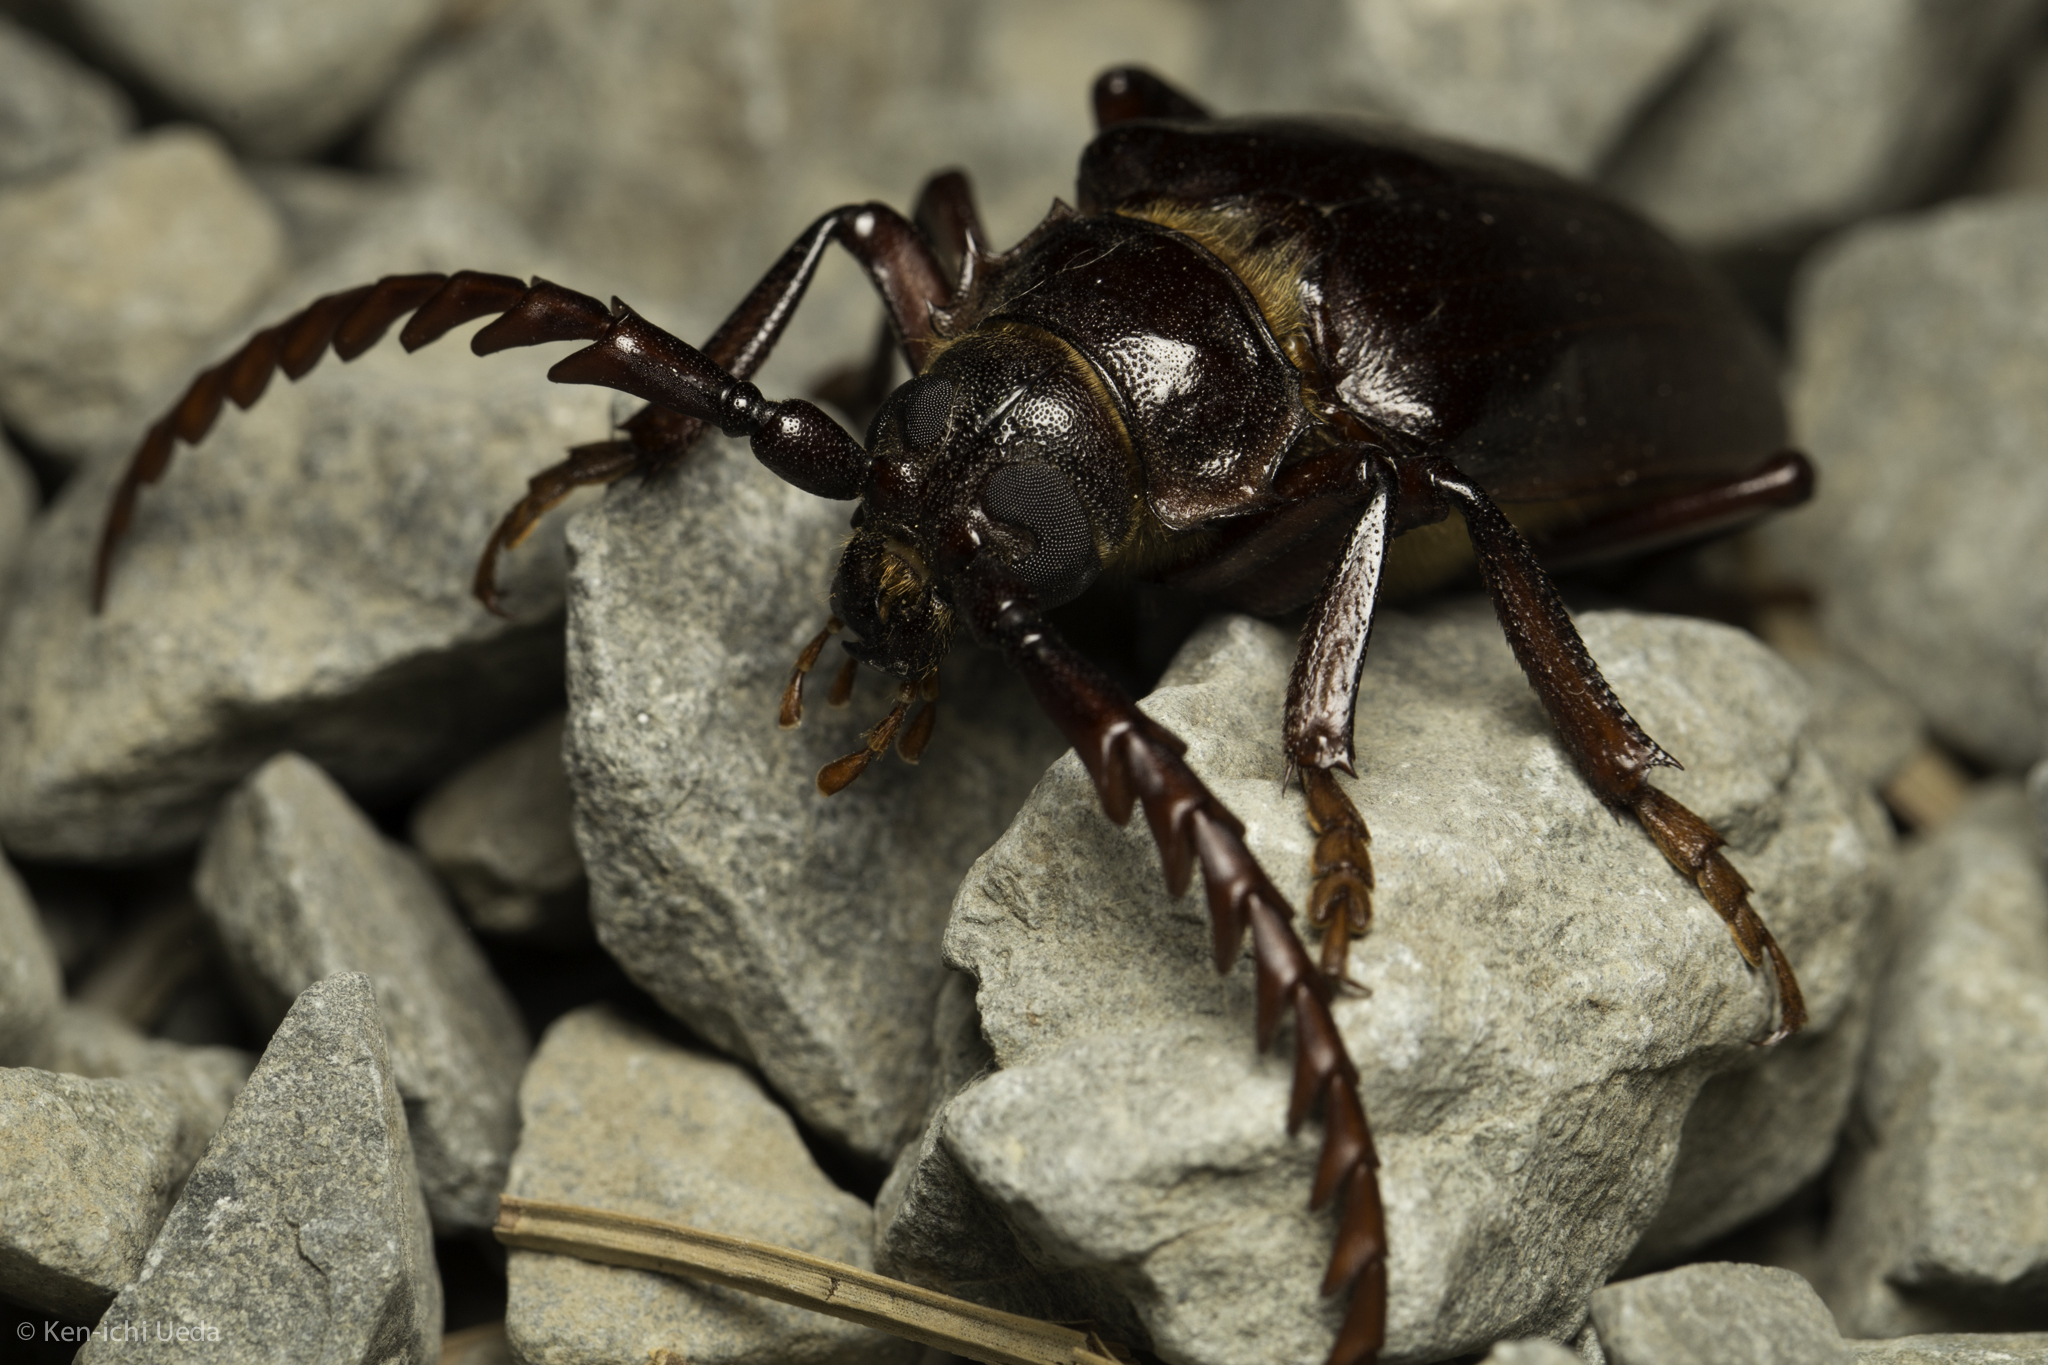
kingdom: Animalia
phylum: Arthropoda
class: Insecta
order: Coleoptera
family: Cerambycidae
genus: Prionus
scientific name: Prionus californicus
